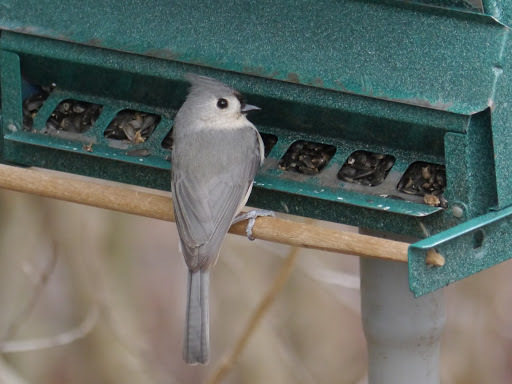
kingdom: Animalia
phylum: Chordata
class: Aves
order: Passeriformes
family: Paridae
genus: Baeolophus
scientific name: Baeolophus bicolor
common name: Tufted titmouse
